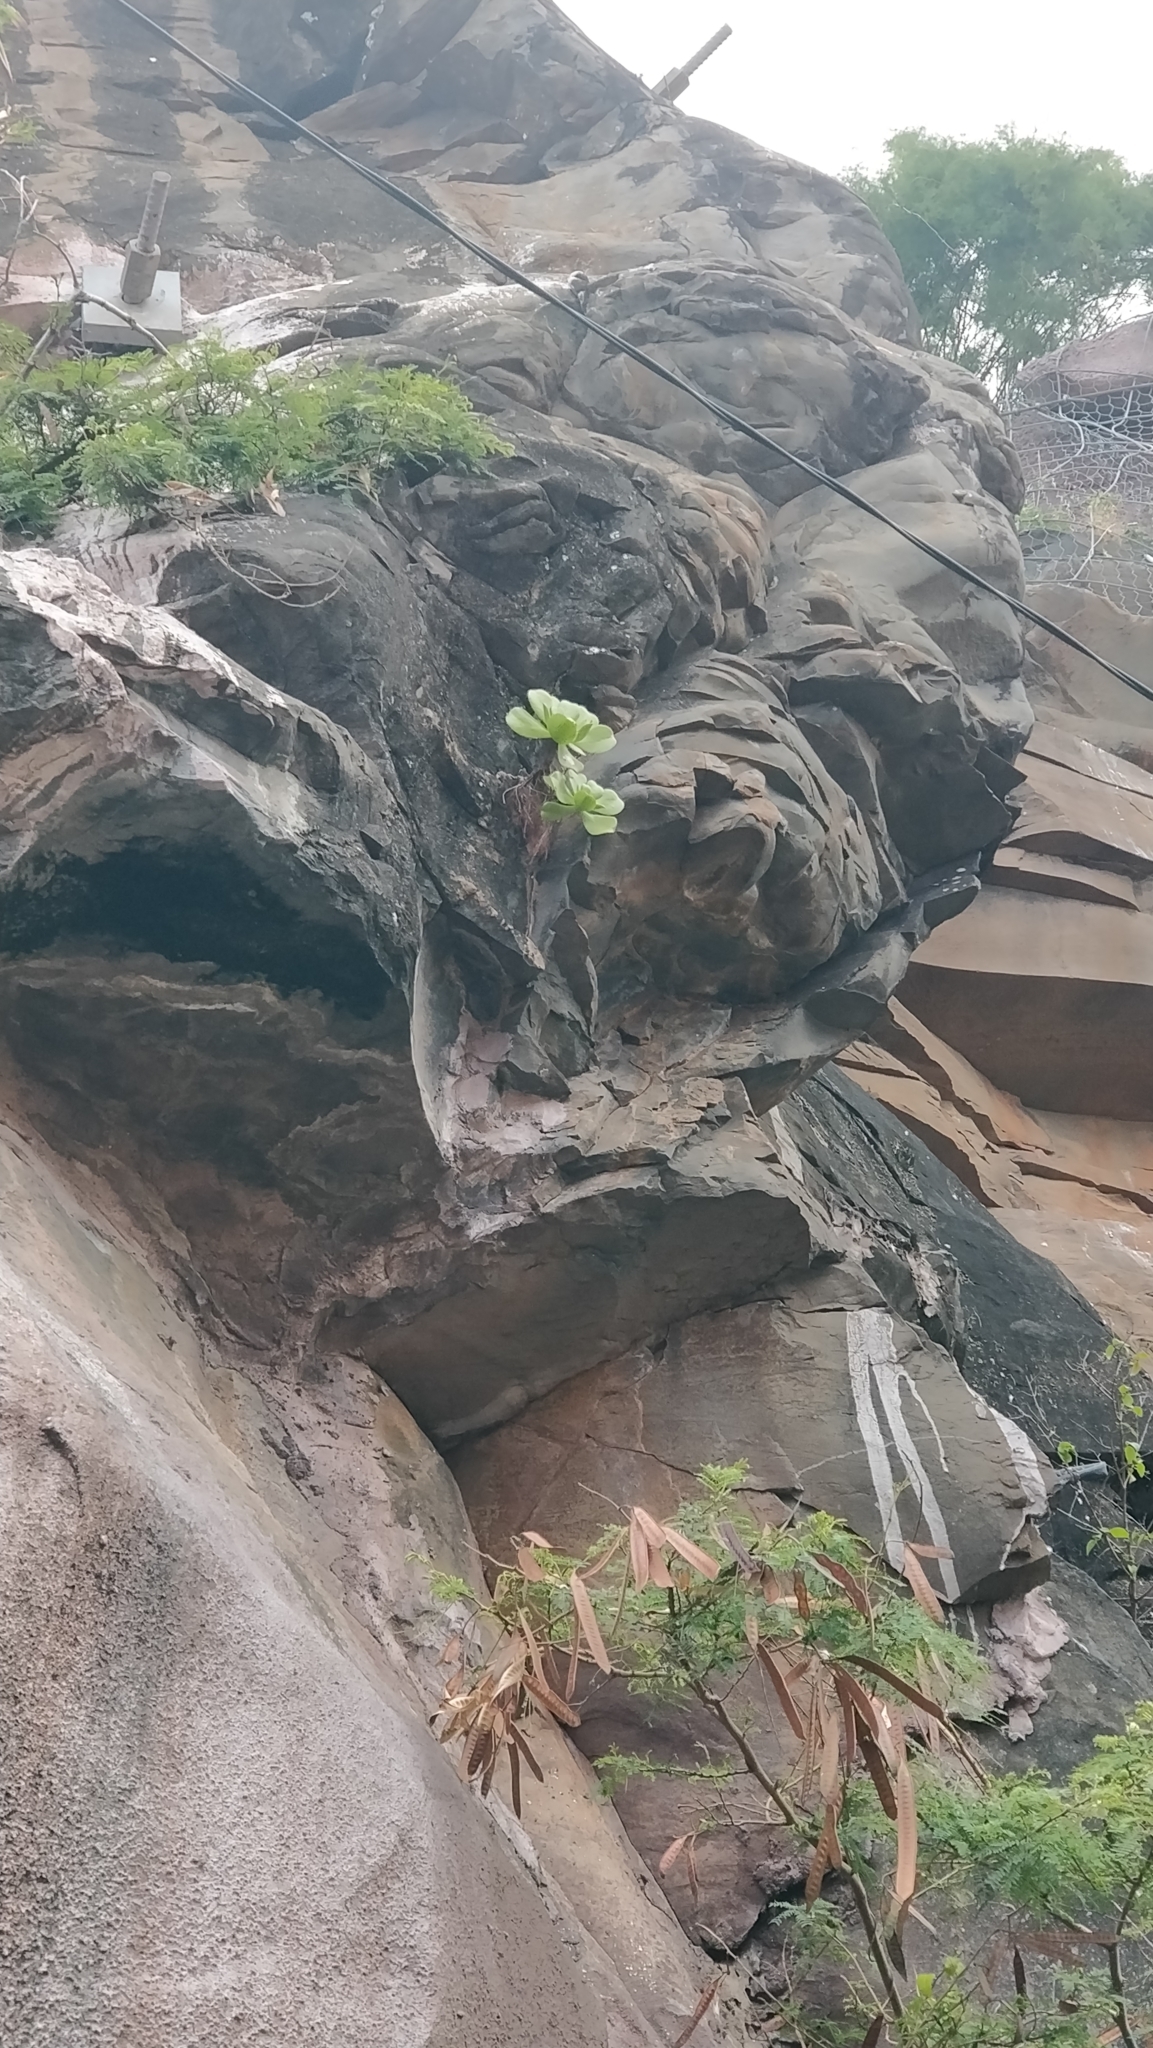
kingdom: Plantae
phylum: Tracheophyta
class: Magnoliopsida
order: Saxifragales
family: Crassulaceae
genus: Aeonium
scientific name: Aeonium glutinosum
